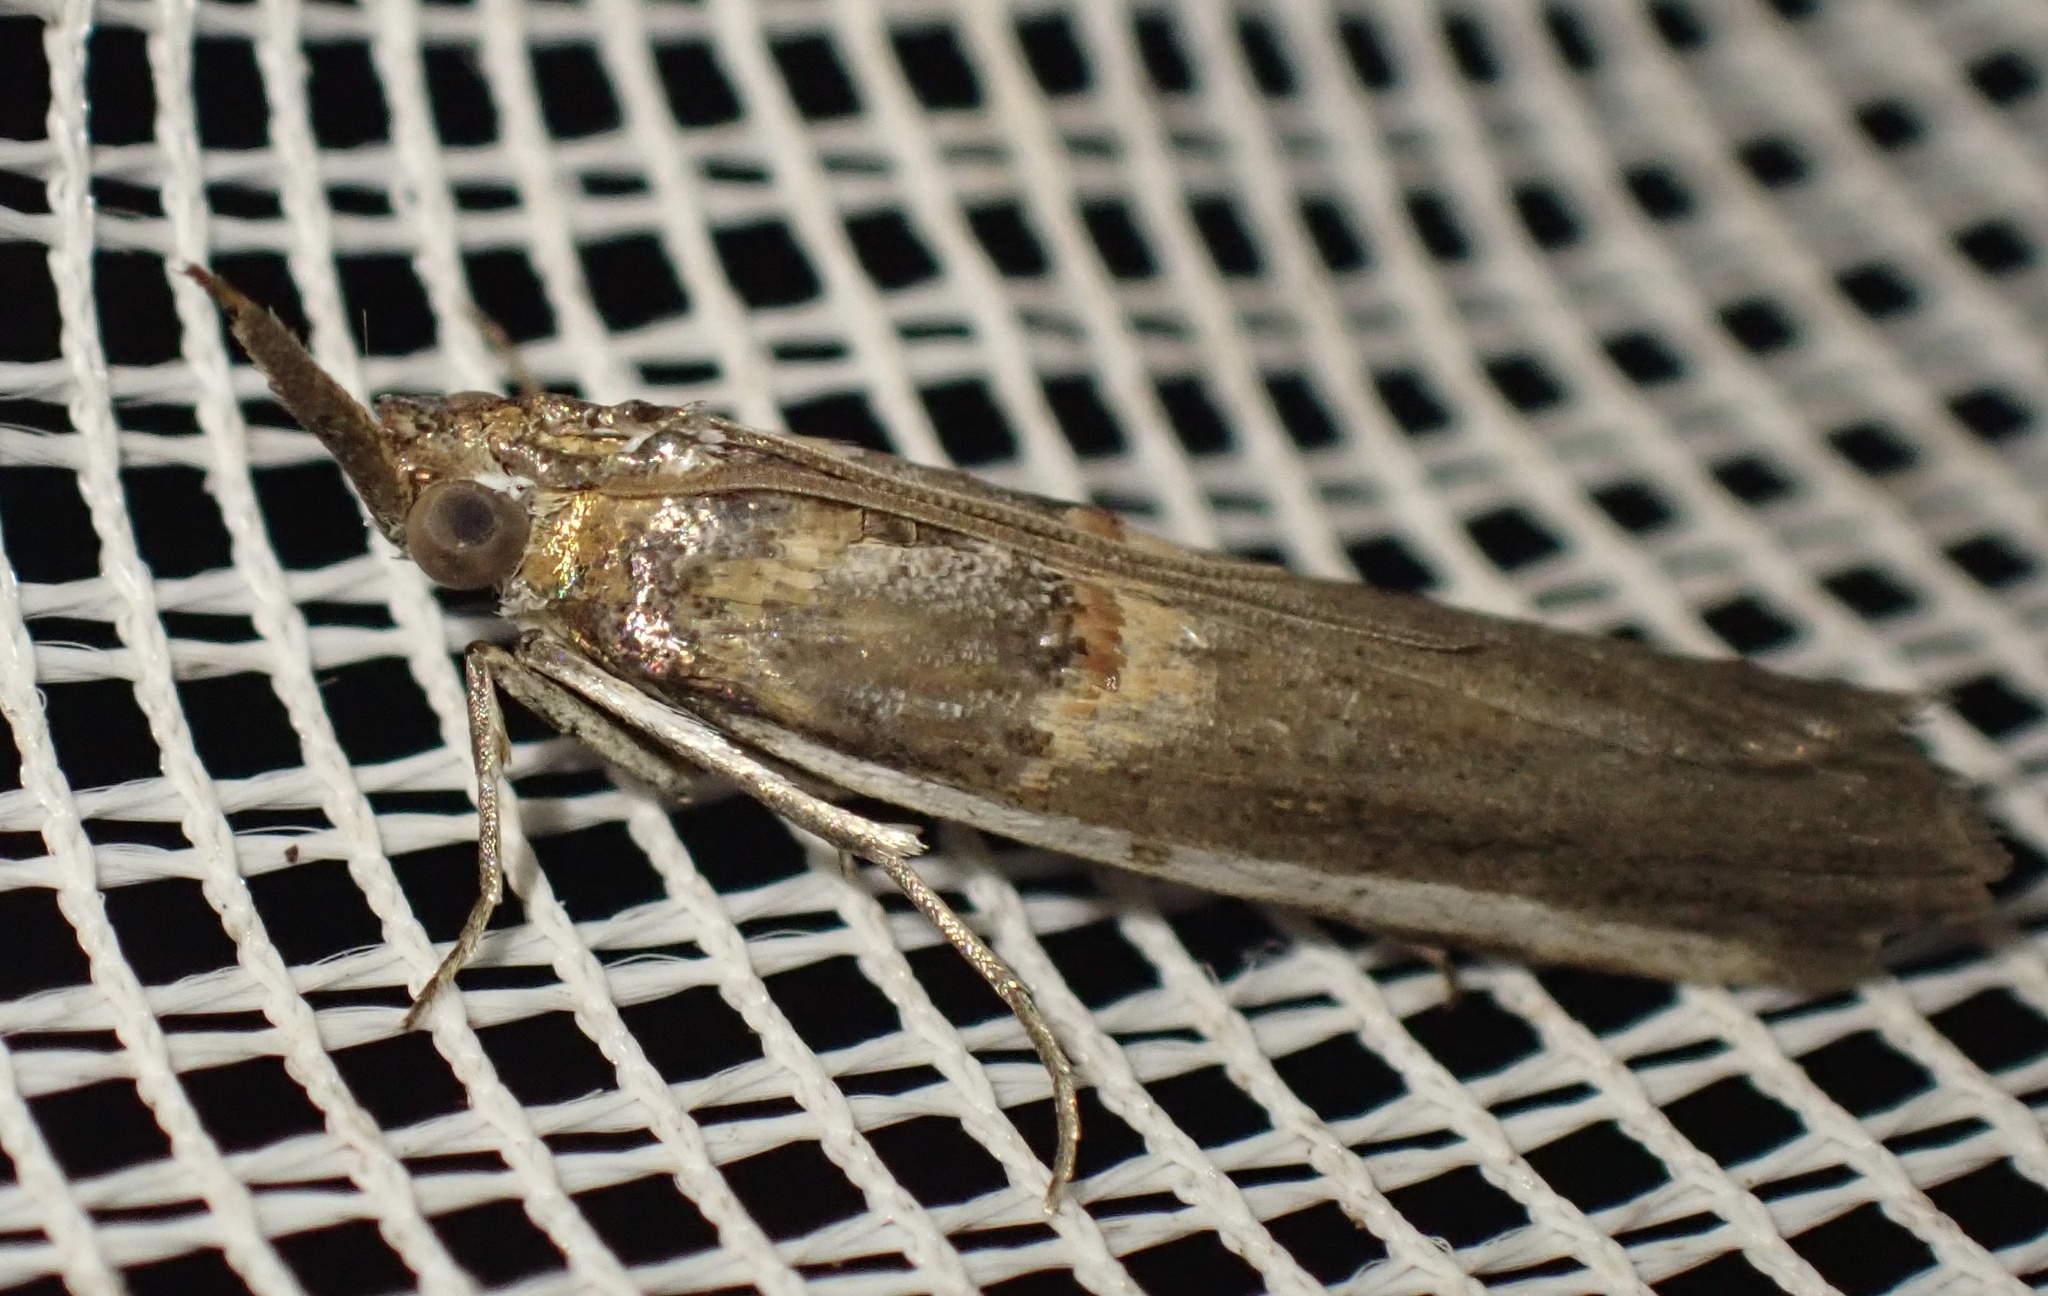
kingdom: Animalia
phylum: Arthropoda
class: Insecta
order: Lepidoptera
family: Pyralidae
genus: Etiella
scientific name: Etiella zinckenella
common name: Gold-banded etiella moth
